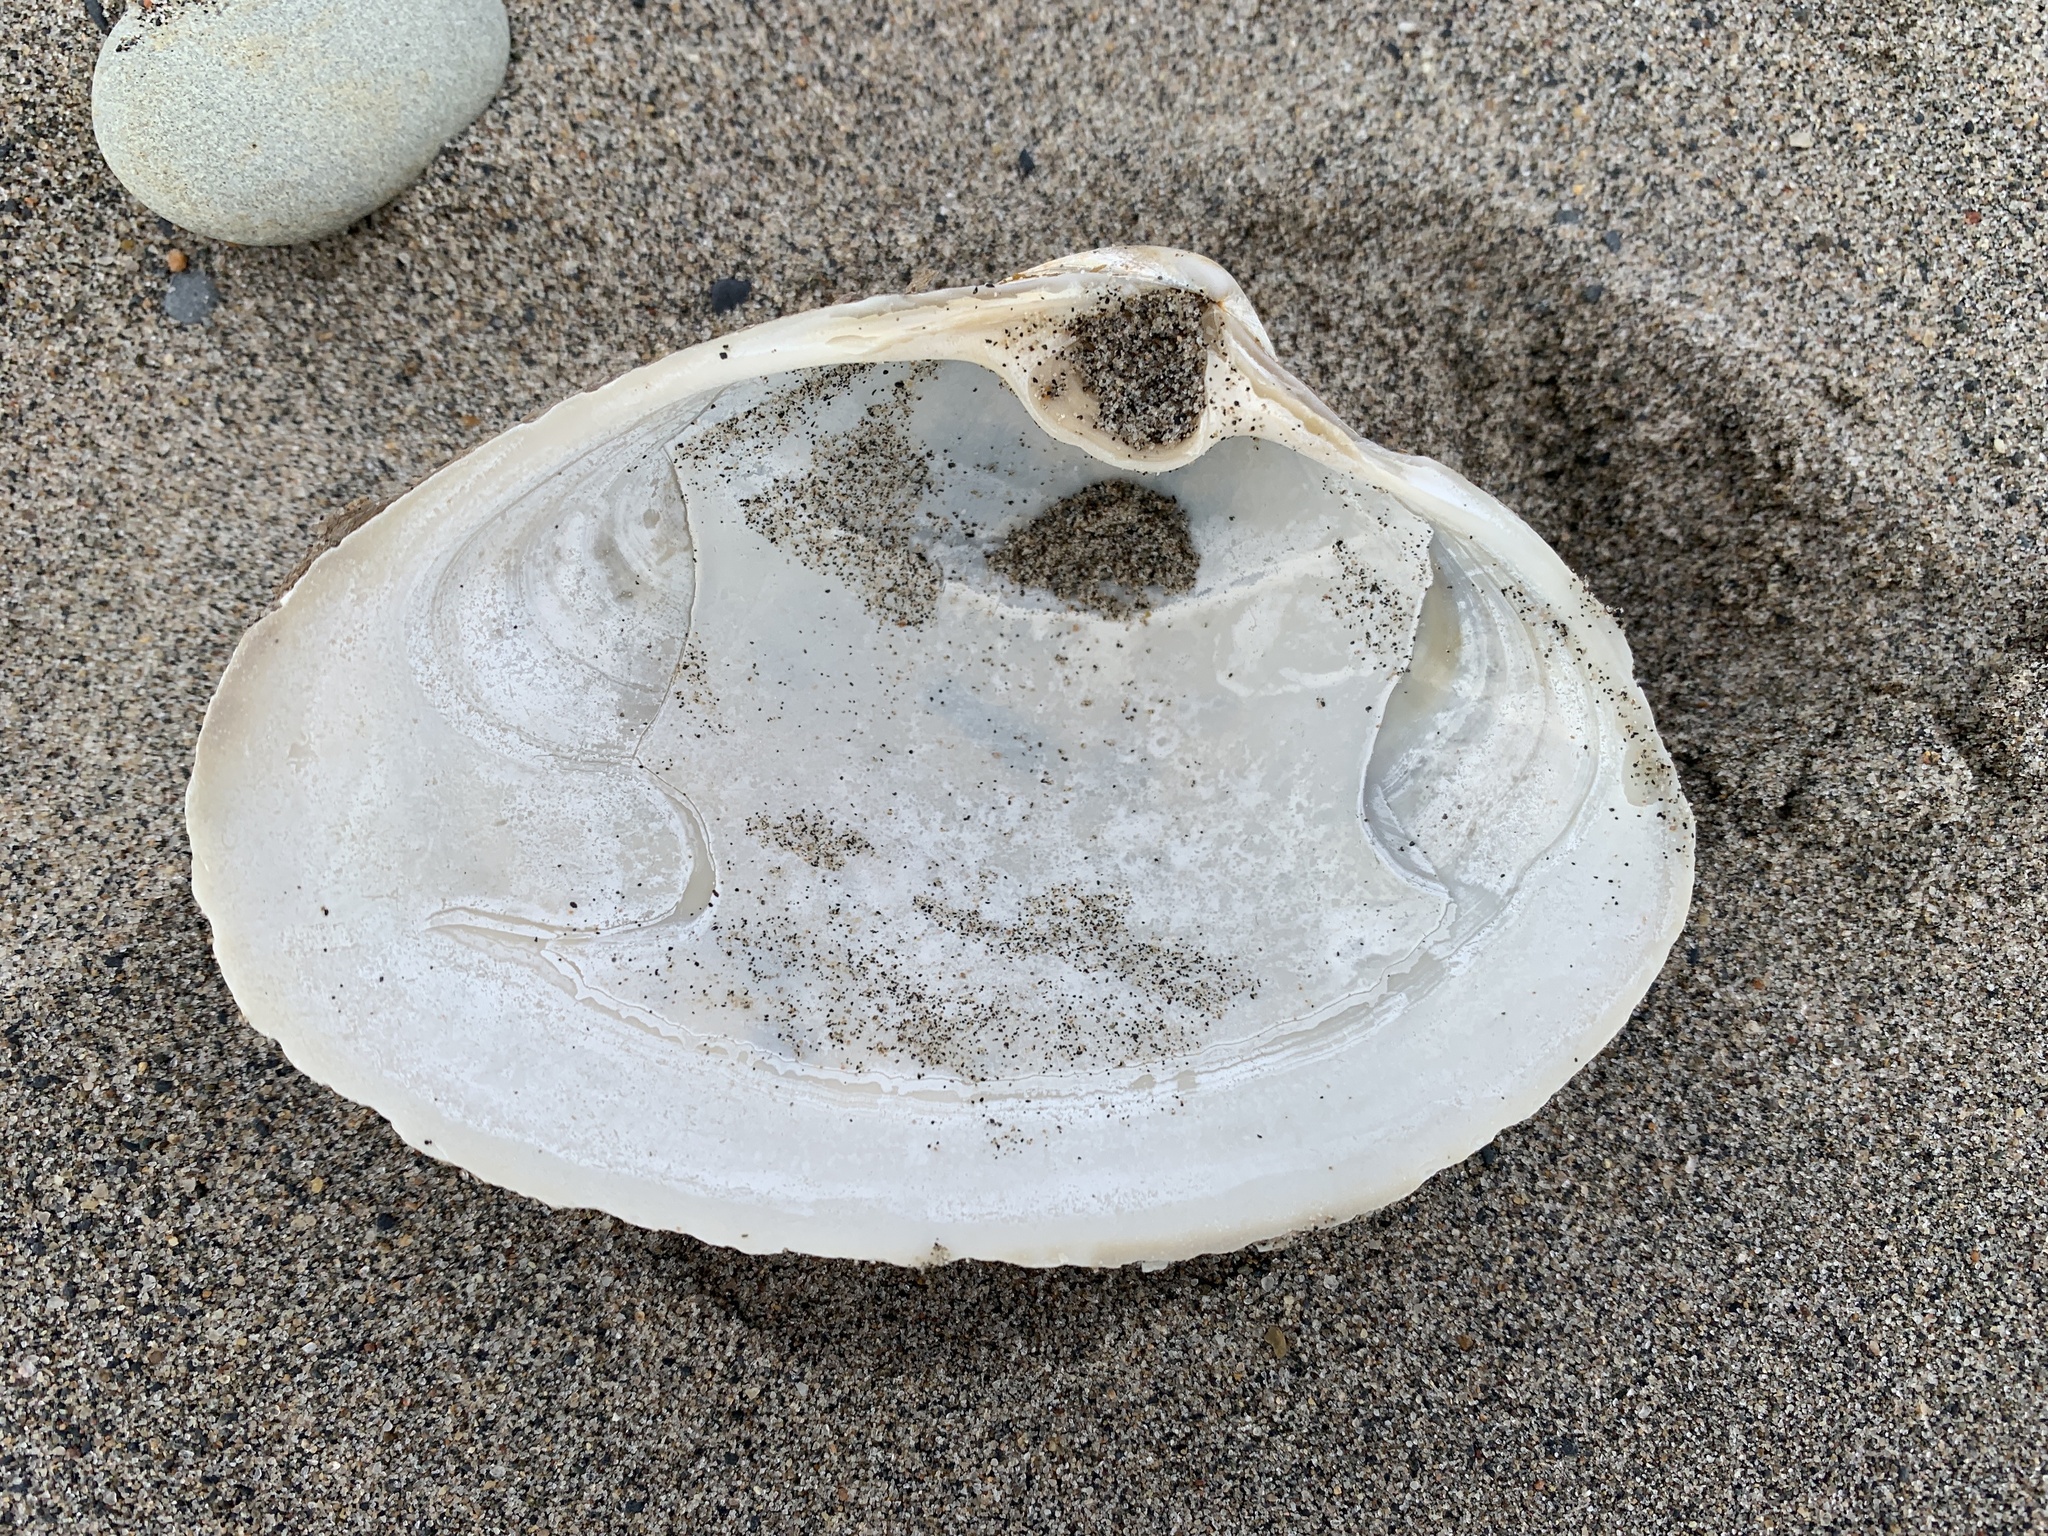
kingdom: Animalia
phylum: Mollusca
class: Bivalvia
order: Venerida
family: Mactridae
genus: Spisula
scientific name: Spisula solidissima
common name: Atlantic surf clam
